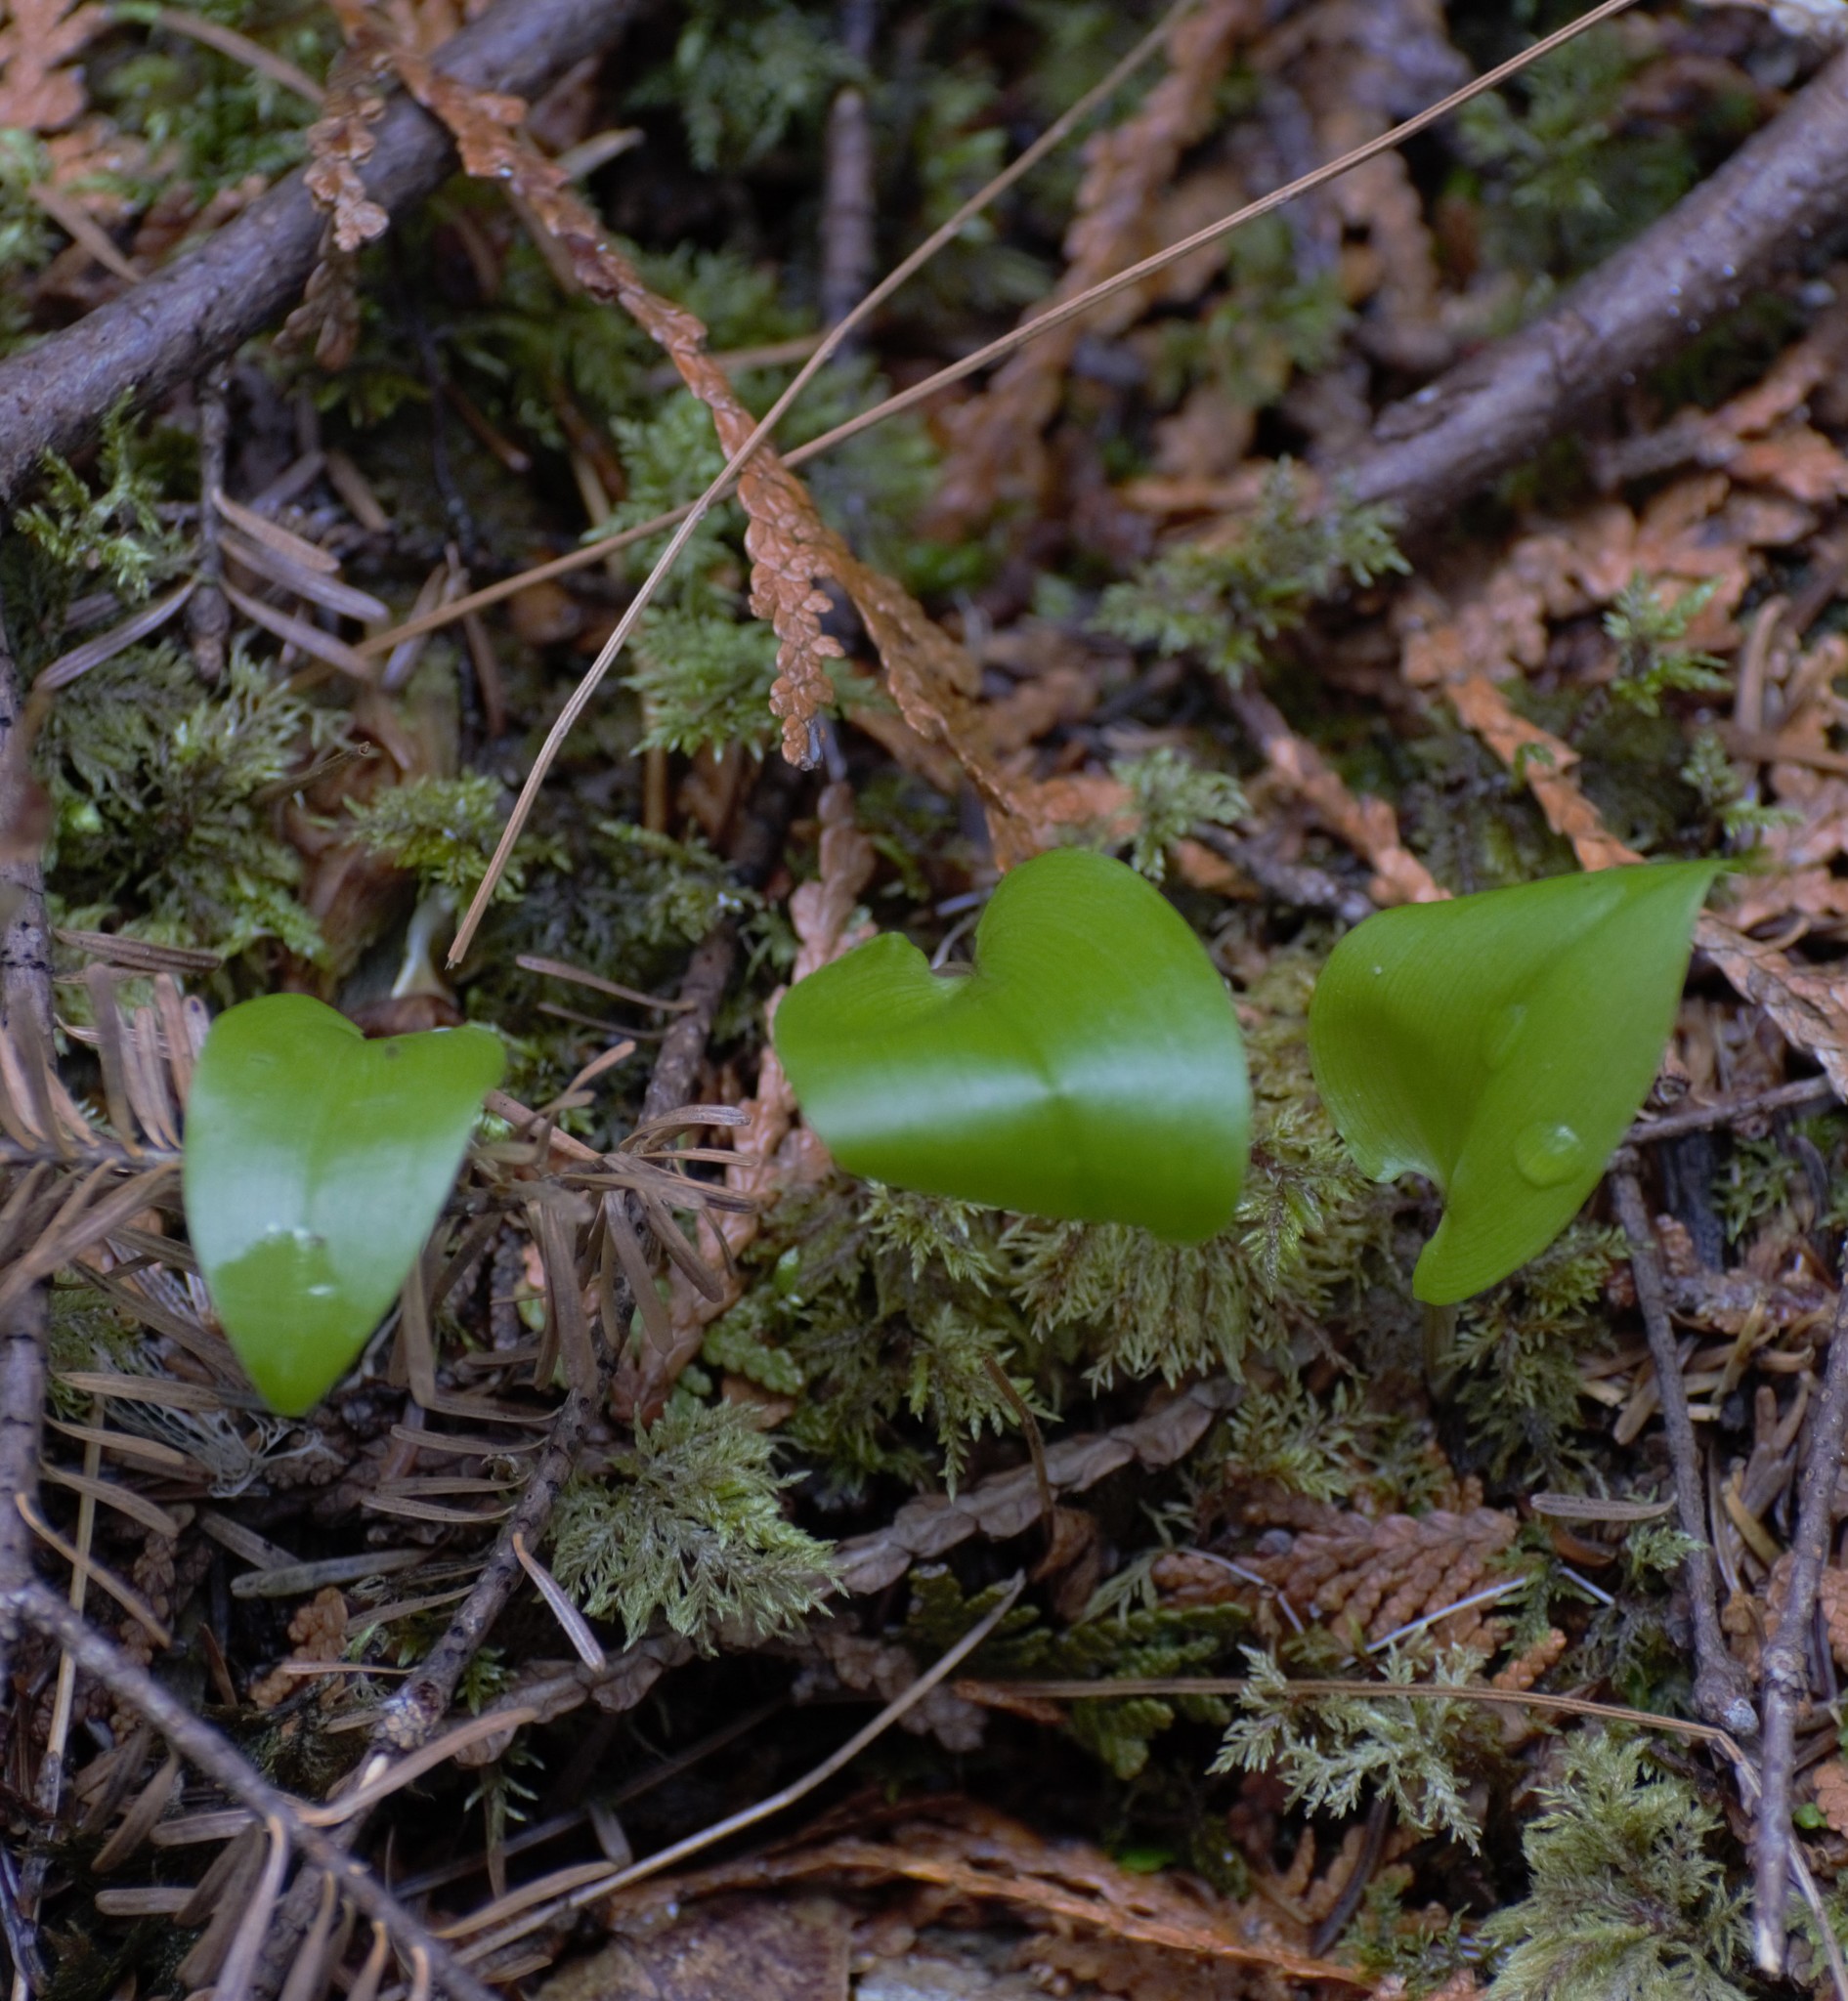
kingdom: Plantae
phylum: Tracheophyta
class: Liliopsida
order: Asparagales
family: Asparagaceae
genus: Maianthemum
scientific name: Maianthemum canadense
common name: False lily-of-the-valley
